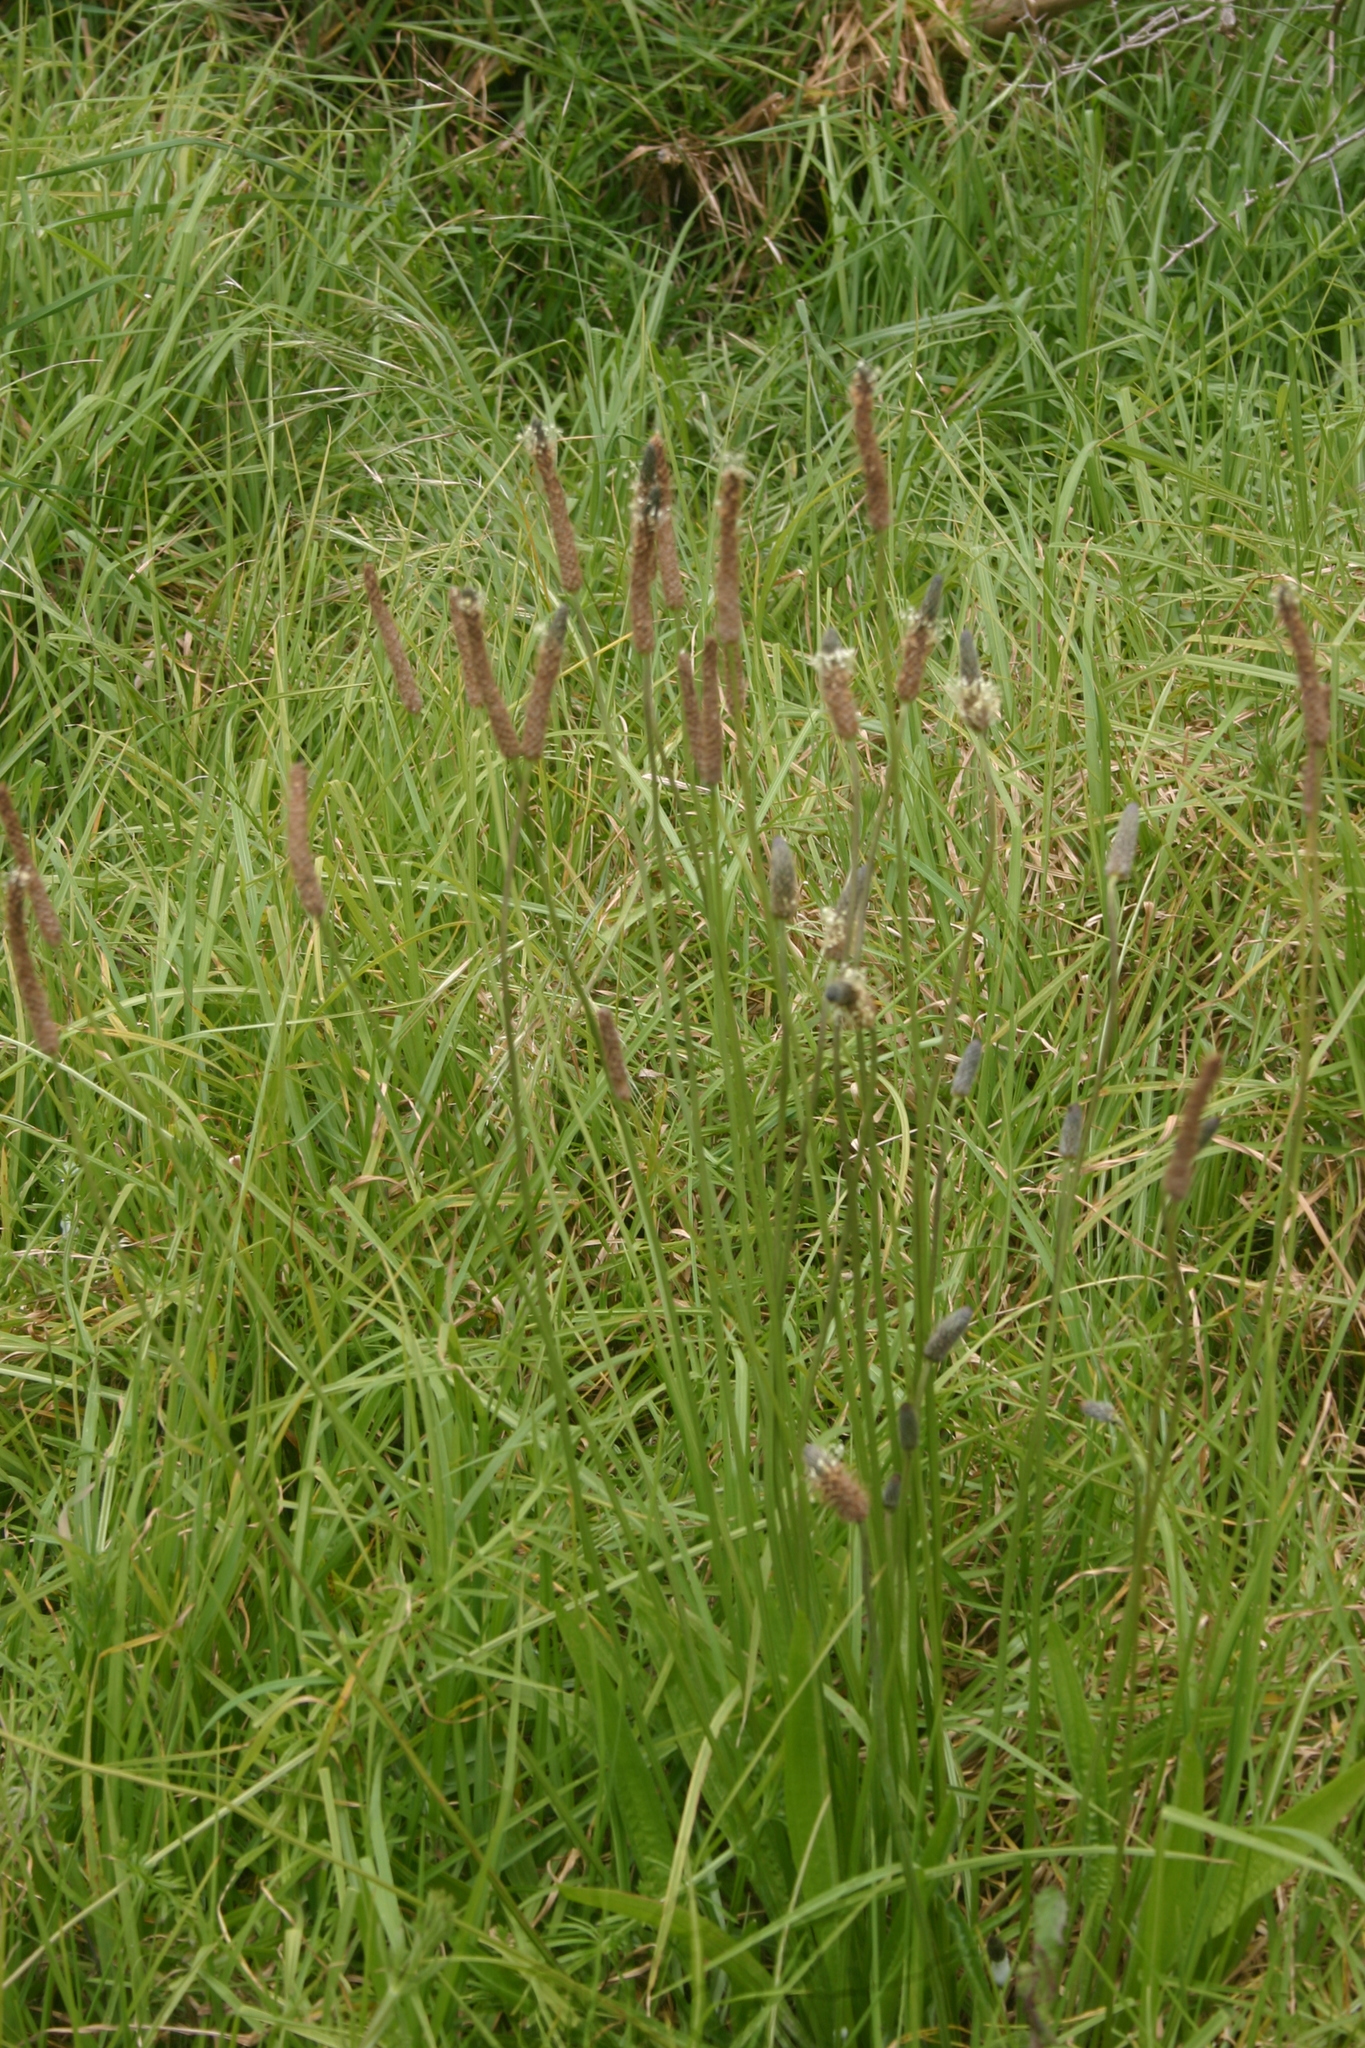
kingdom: Plantae
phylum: Tracheophyta
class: Magnoliopsida
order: Lamiales
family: Plantaginaceae
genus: Plantago
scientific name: Plantago lanceolata
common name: Ribwort plantain
